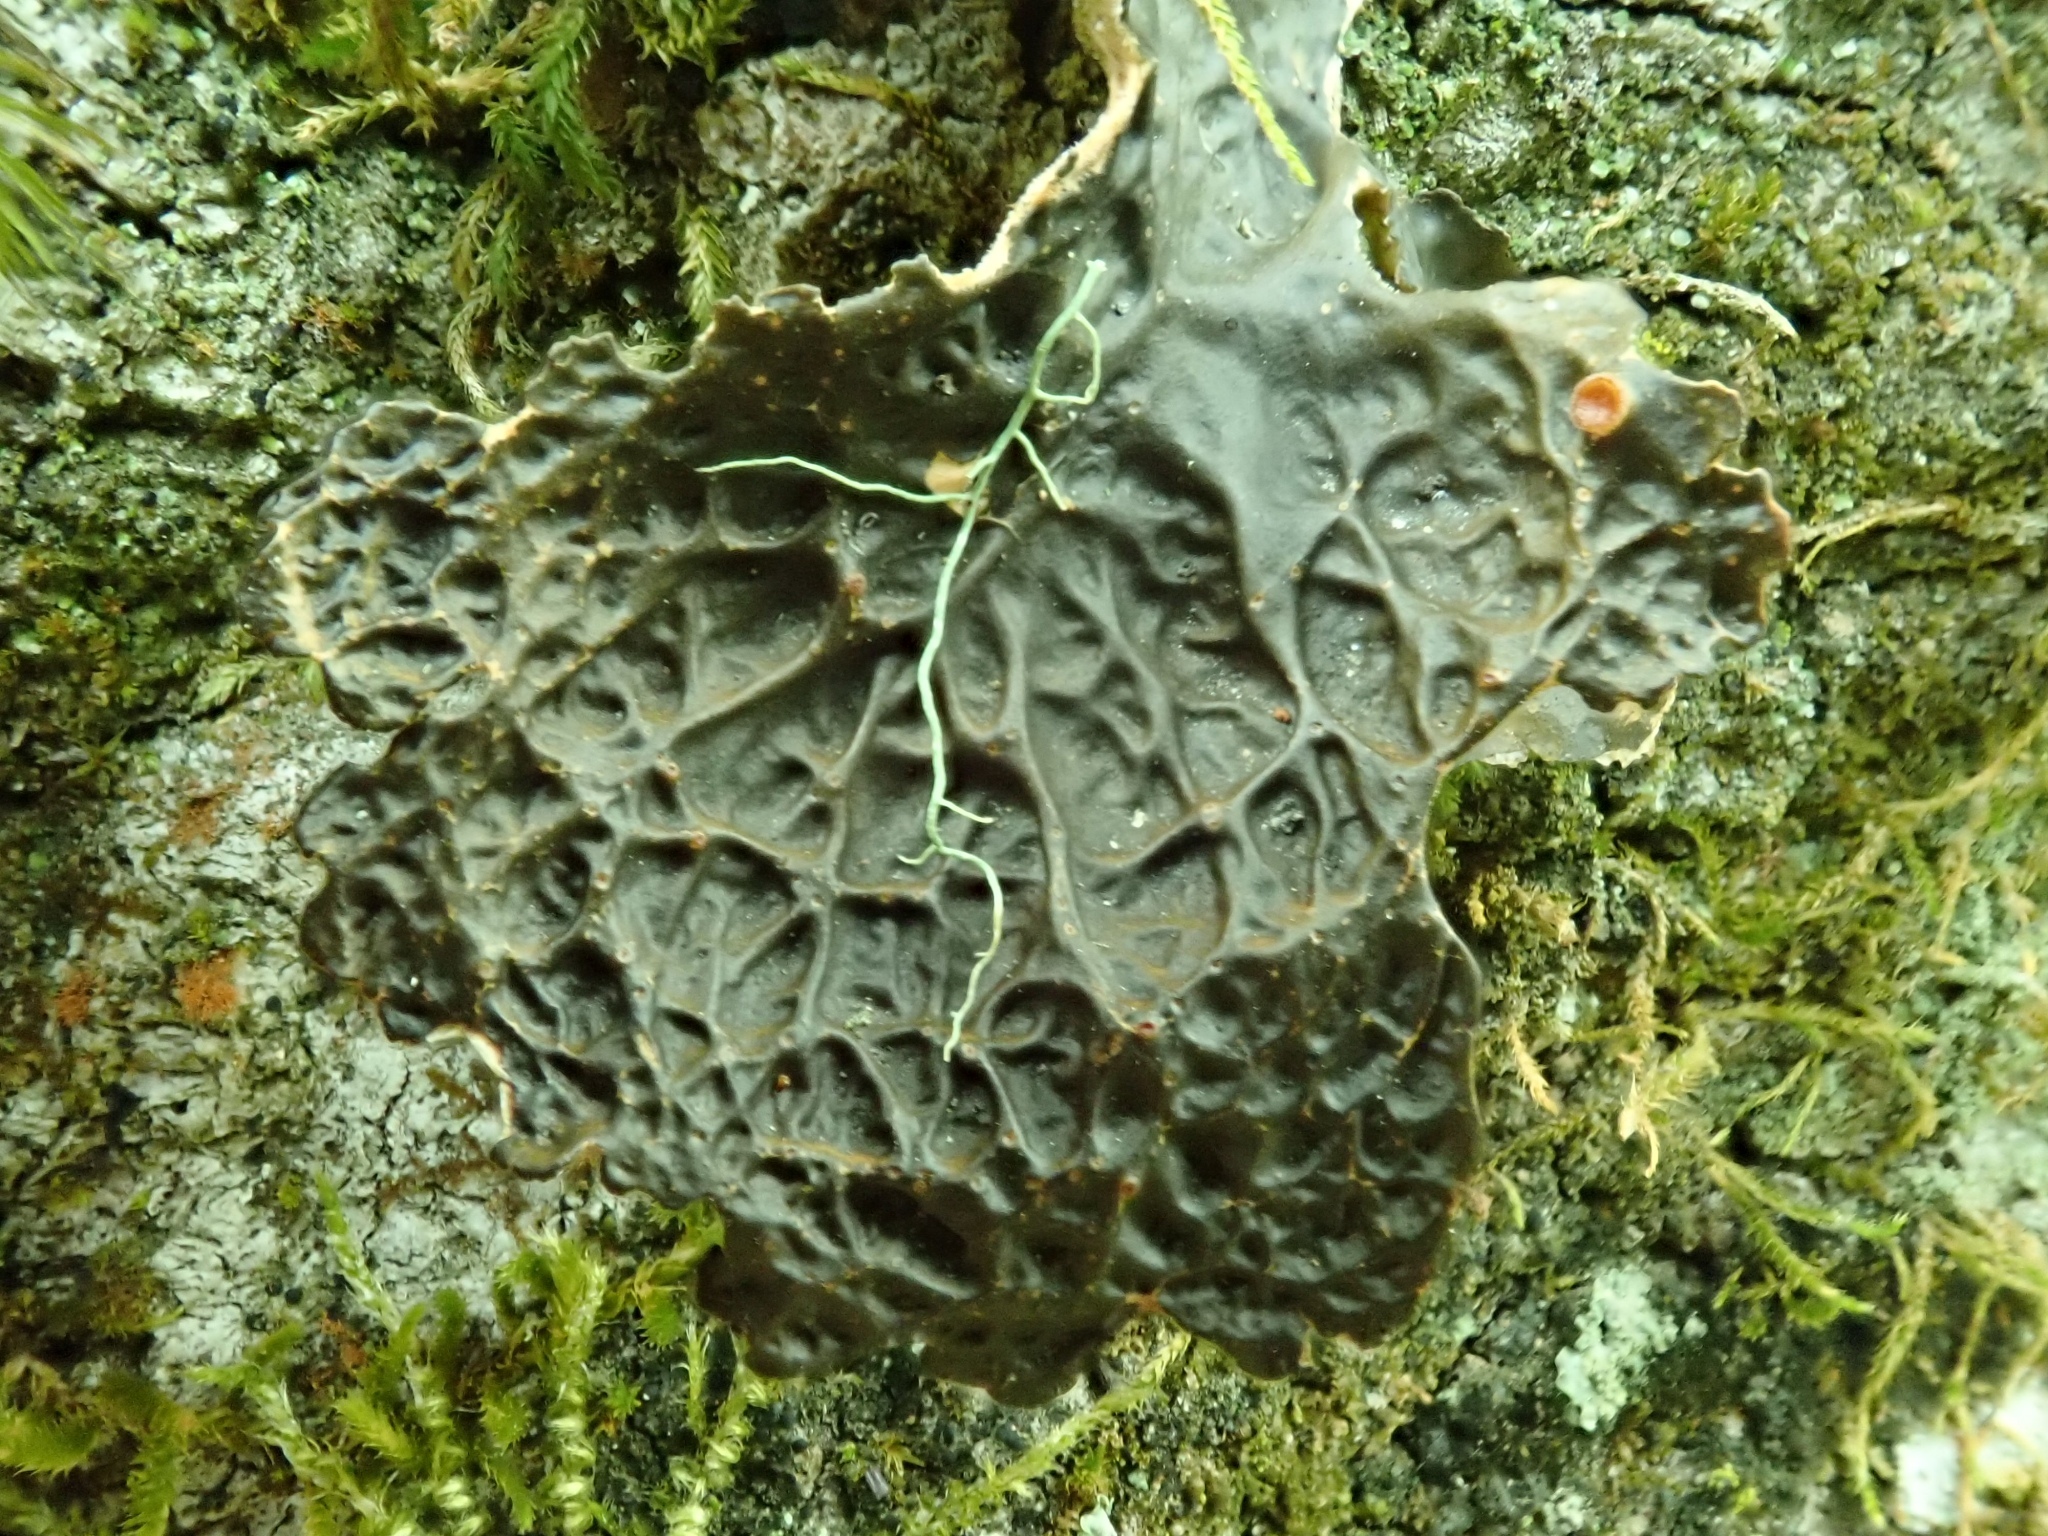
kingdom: Fungi
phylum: Ascomycota
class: Lecanoromycetes
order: Peltigerales
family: Lobariaceae
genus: Lobaria
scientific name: Lobaria anthraspis
